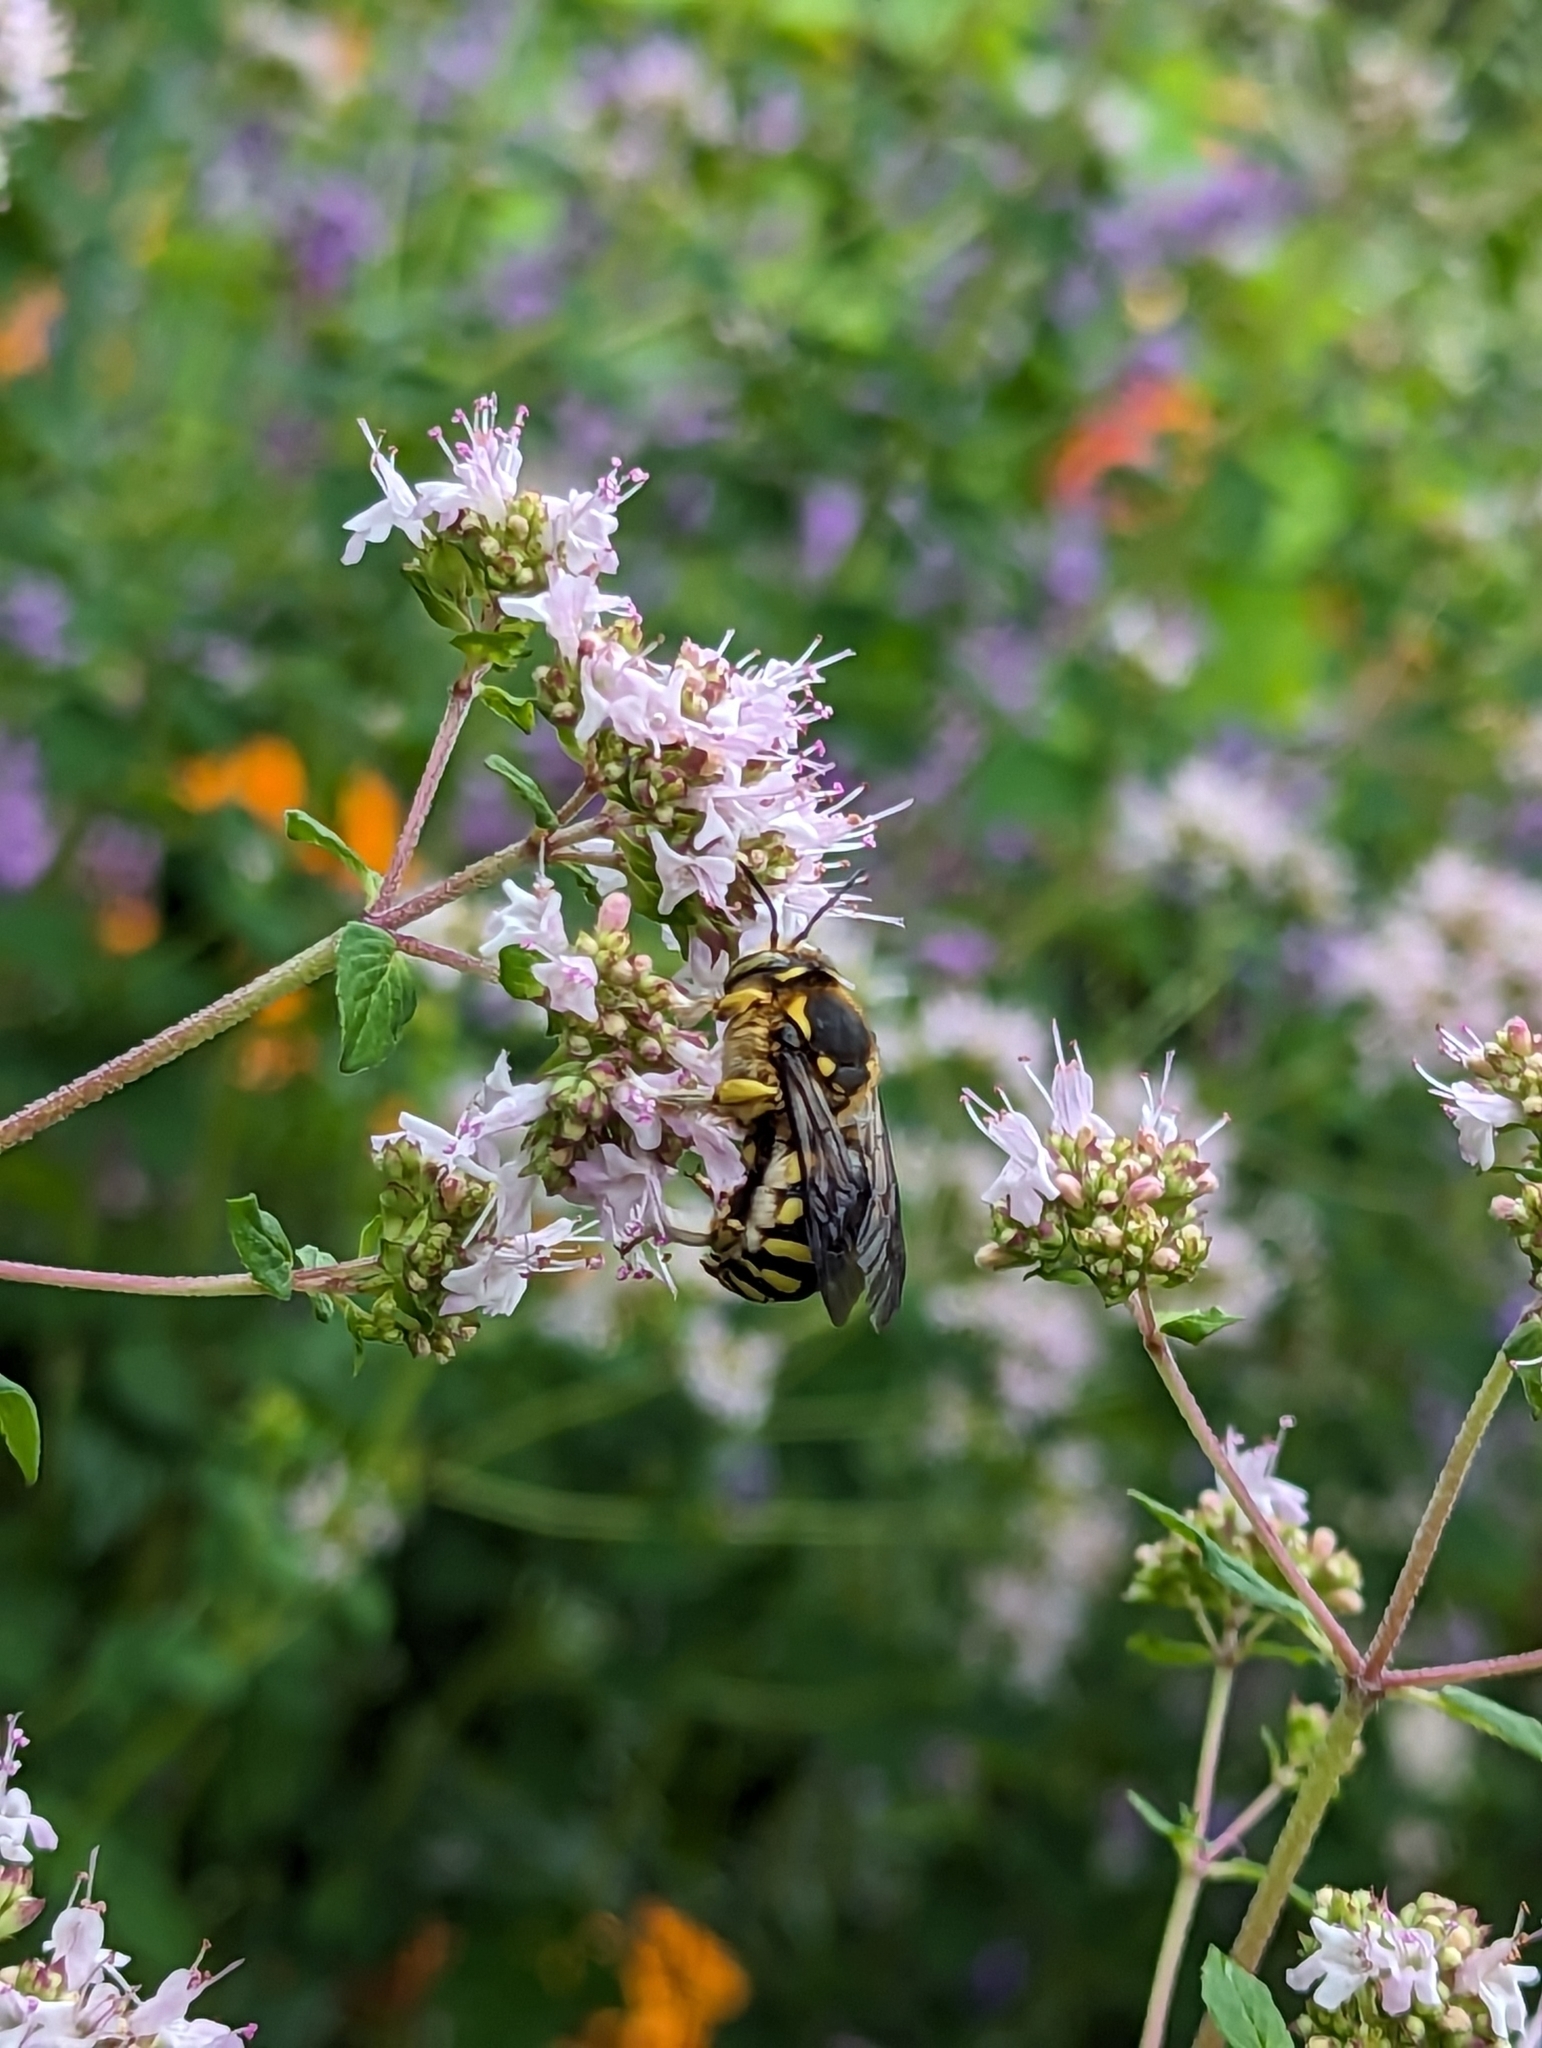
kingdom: Animalia
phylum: Arthropoda
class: Insecta
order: Hymenoptera
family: Megachilidae
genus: Anthidium
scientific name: Anthidium florentinum
